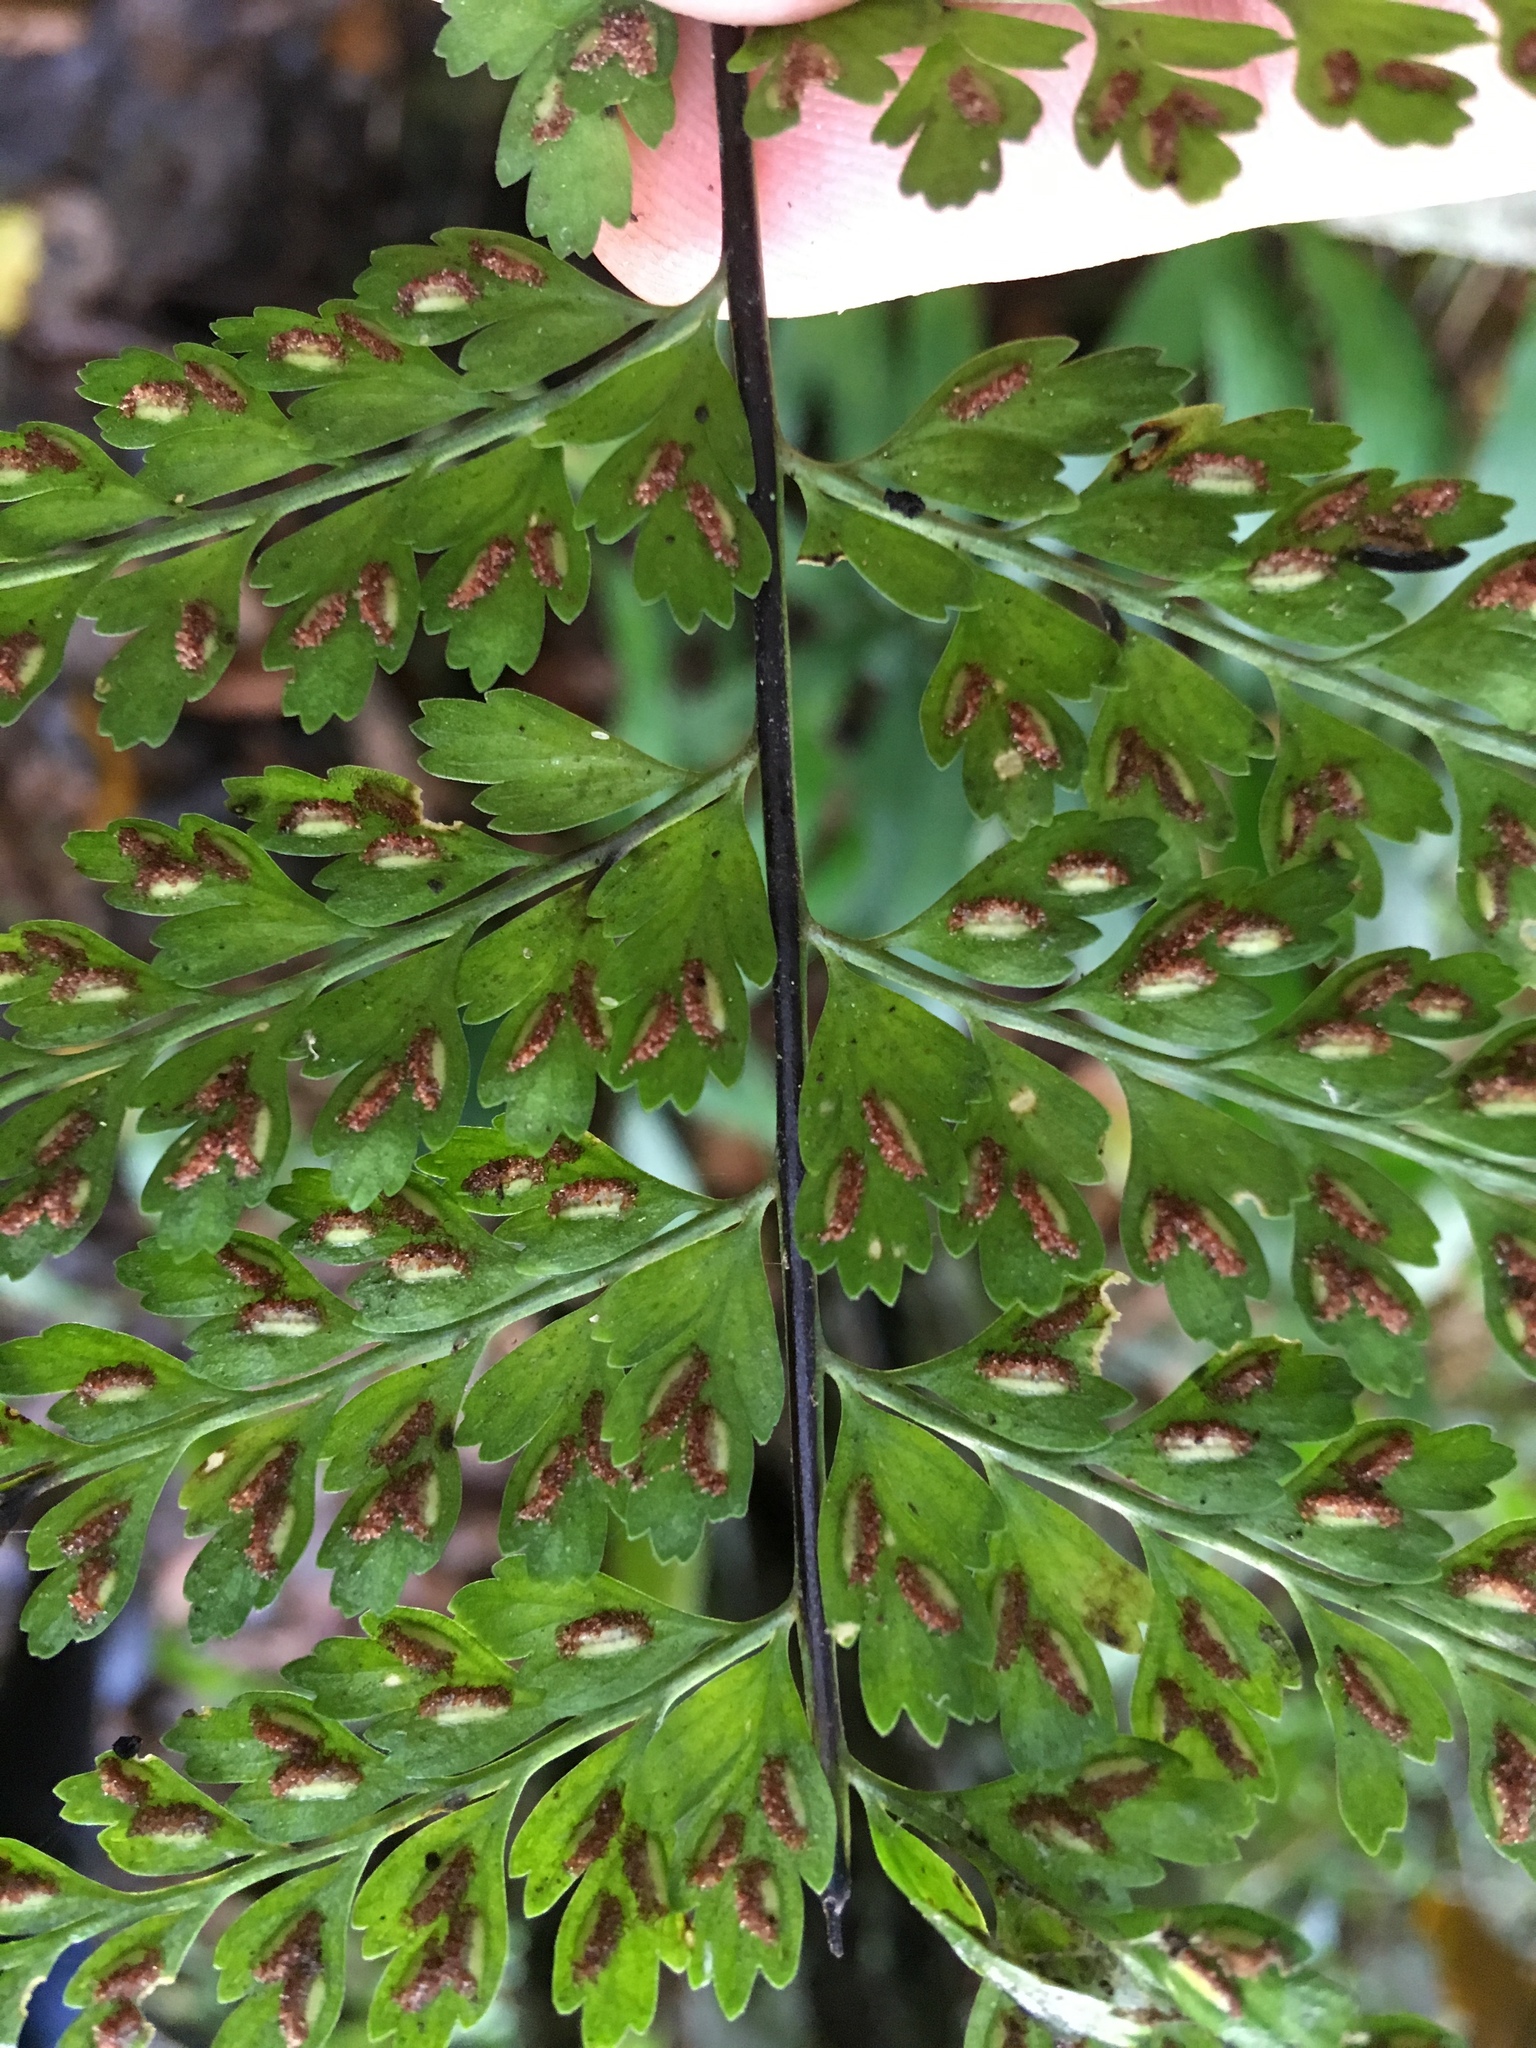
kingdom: Plantae
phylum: Tracheophyta
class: Polypodiopsida
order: Polypodiales
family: Aspleniaceae
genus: Asplenium
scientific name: Asplenium radicans
